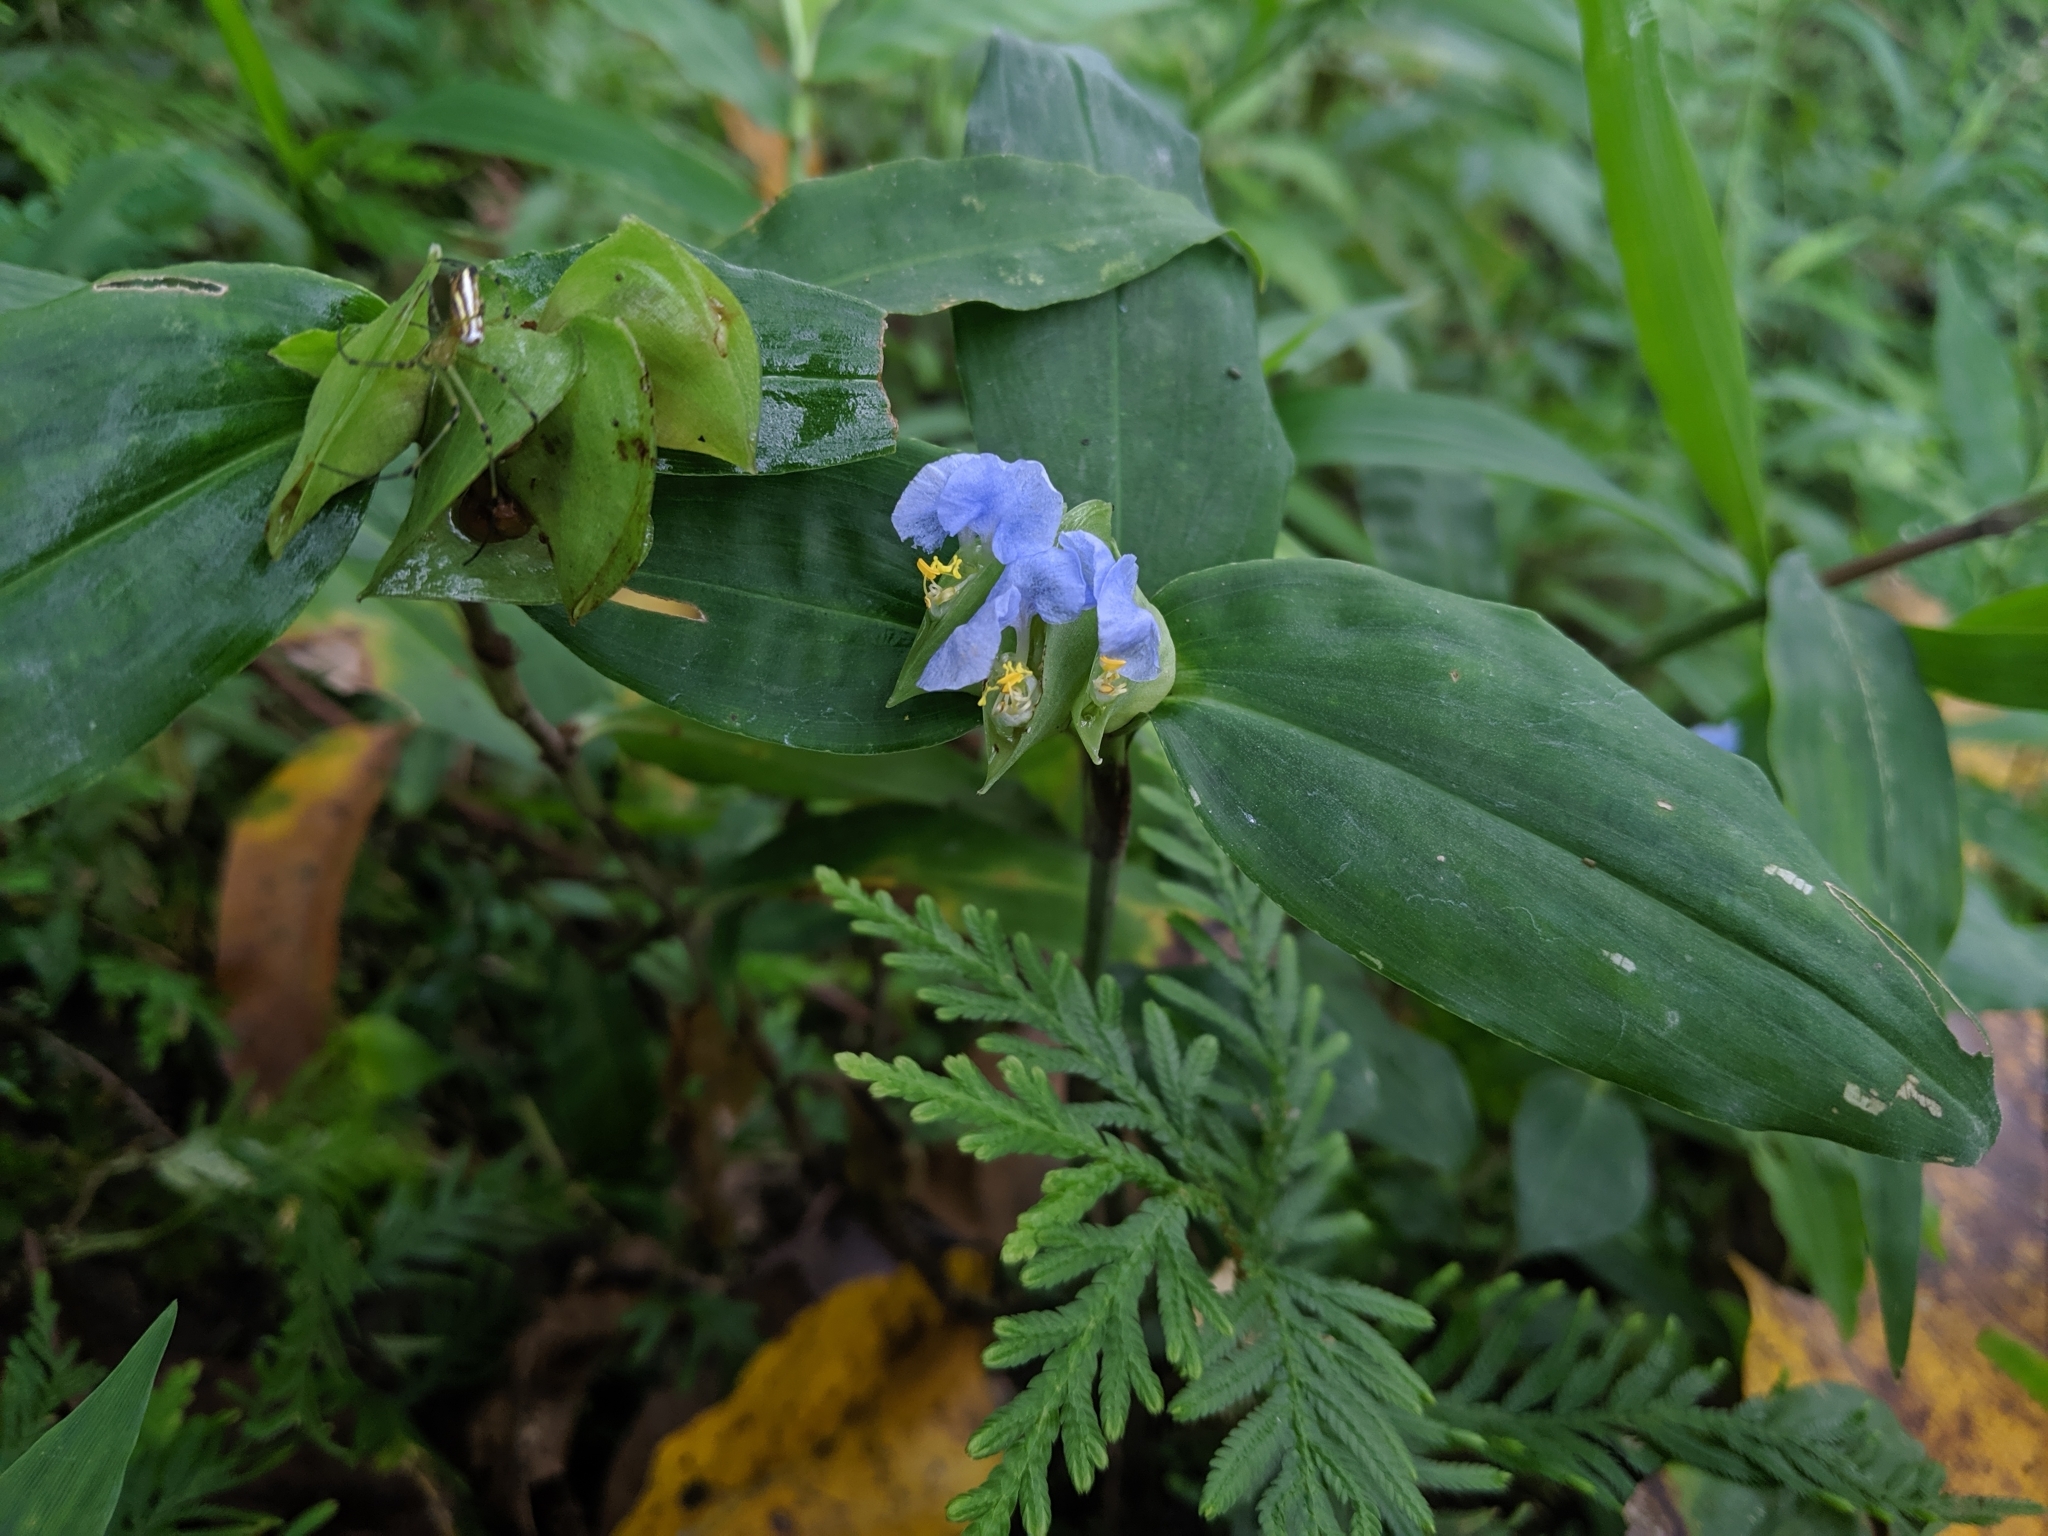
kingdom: Plantae
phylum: Tracheophyta
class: Liliopsida
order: Commelinales
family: Commelinaceae
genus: Commelina
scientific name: Commelina paludosa
